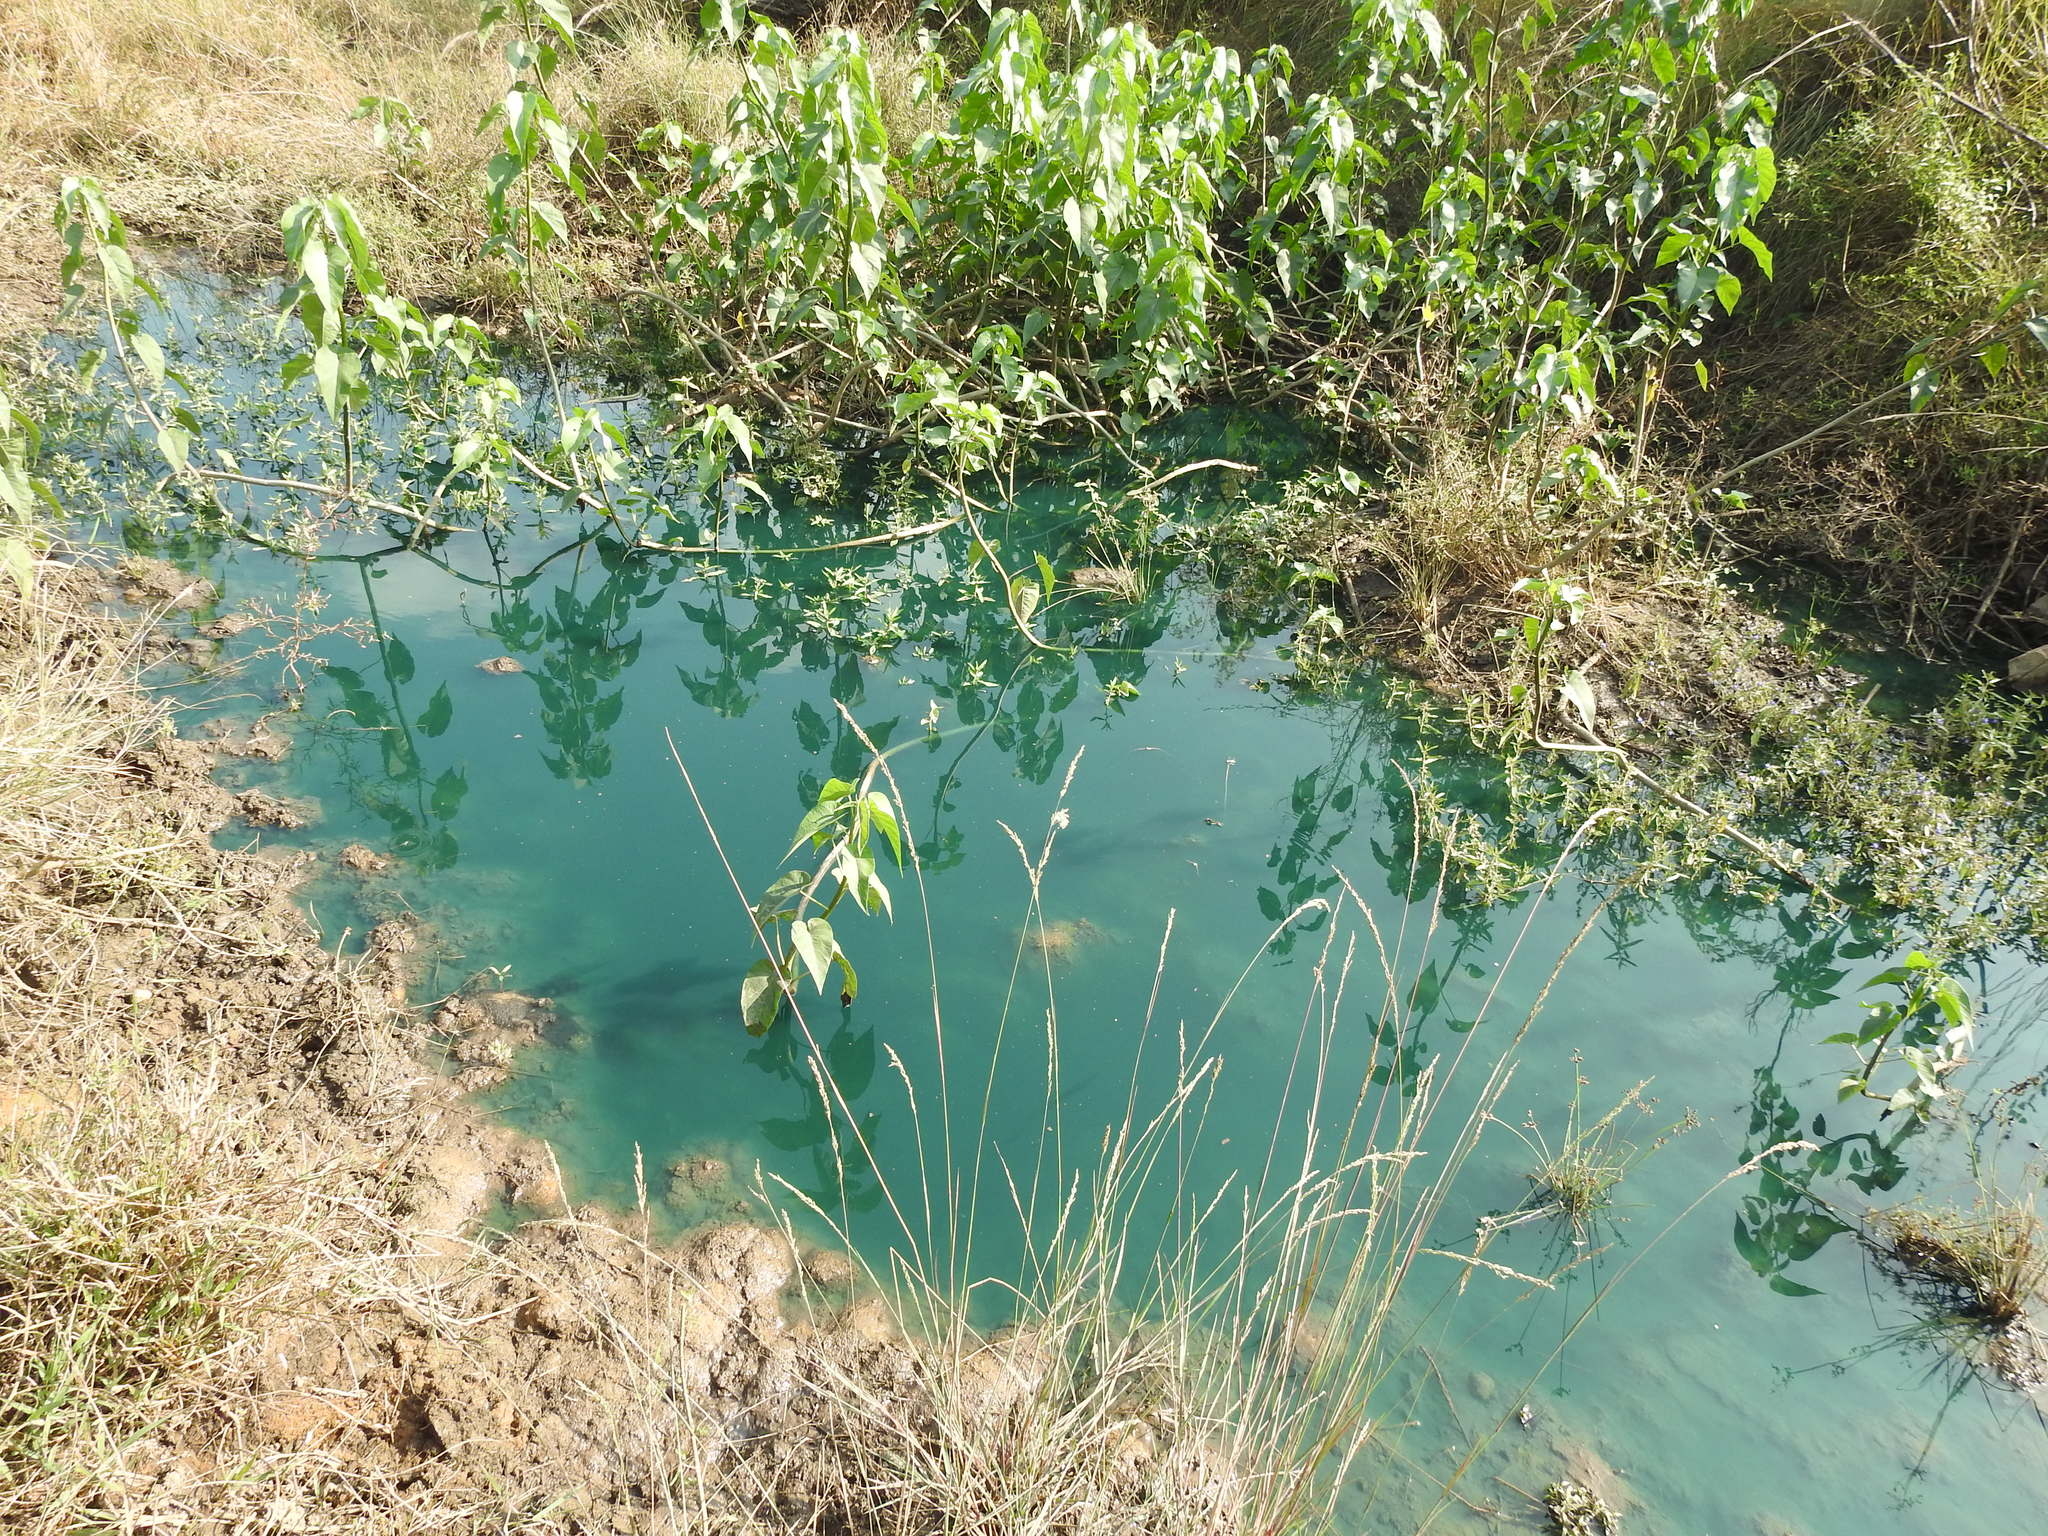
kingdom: Plantae
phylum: Tracheophyta
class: Magnoliopsida
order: Solanales
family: Convolvulaceae
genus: Ipomoea
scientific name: Ipomoea carnea
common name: Morning-glory
